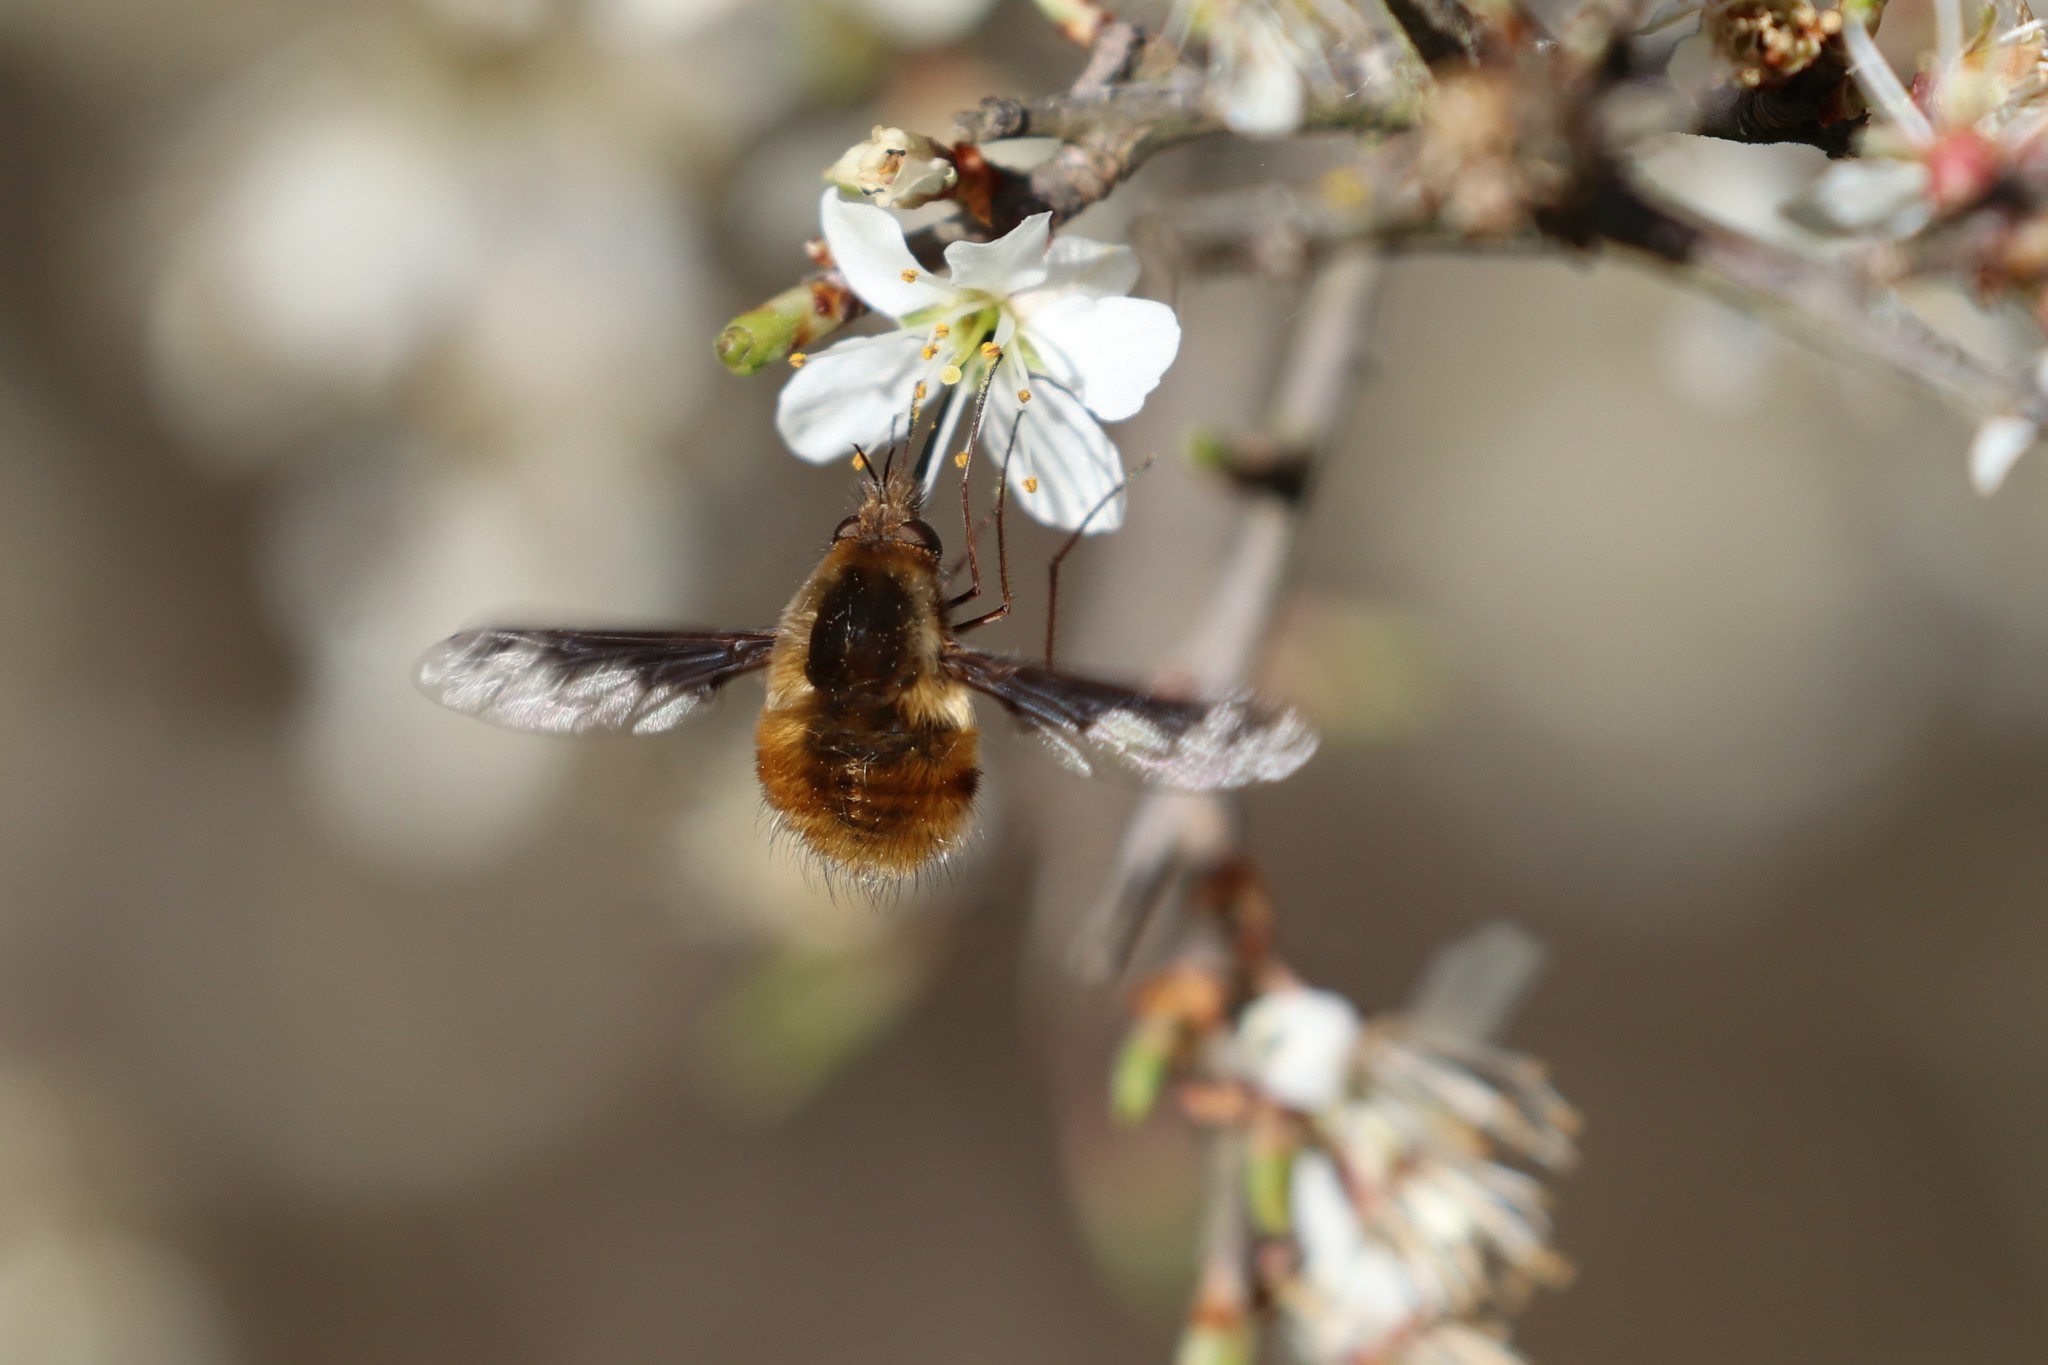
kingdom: Animalia
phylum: Arthropoda
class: Insecta
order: Diptera
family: Bombyliidae
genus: Bombylius
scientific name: Bombylius major
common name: Bee fly
